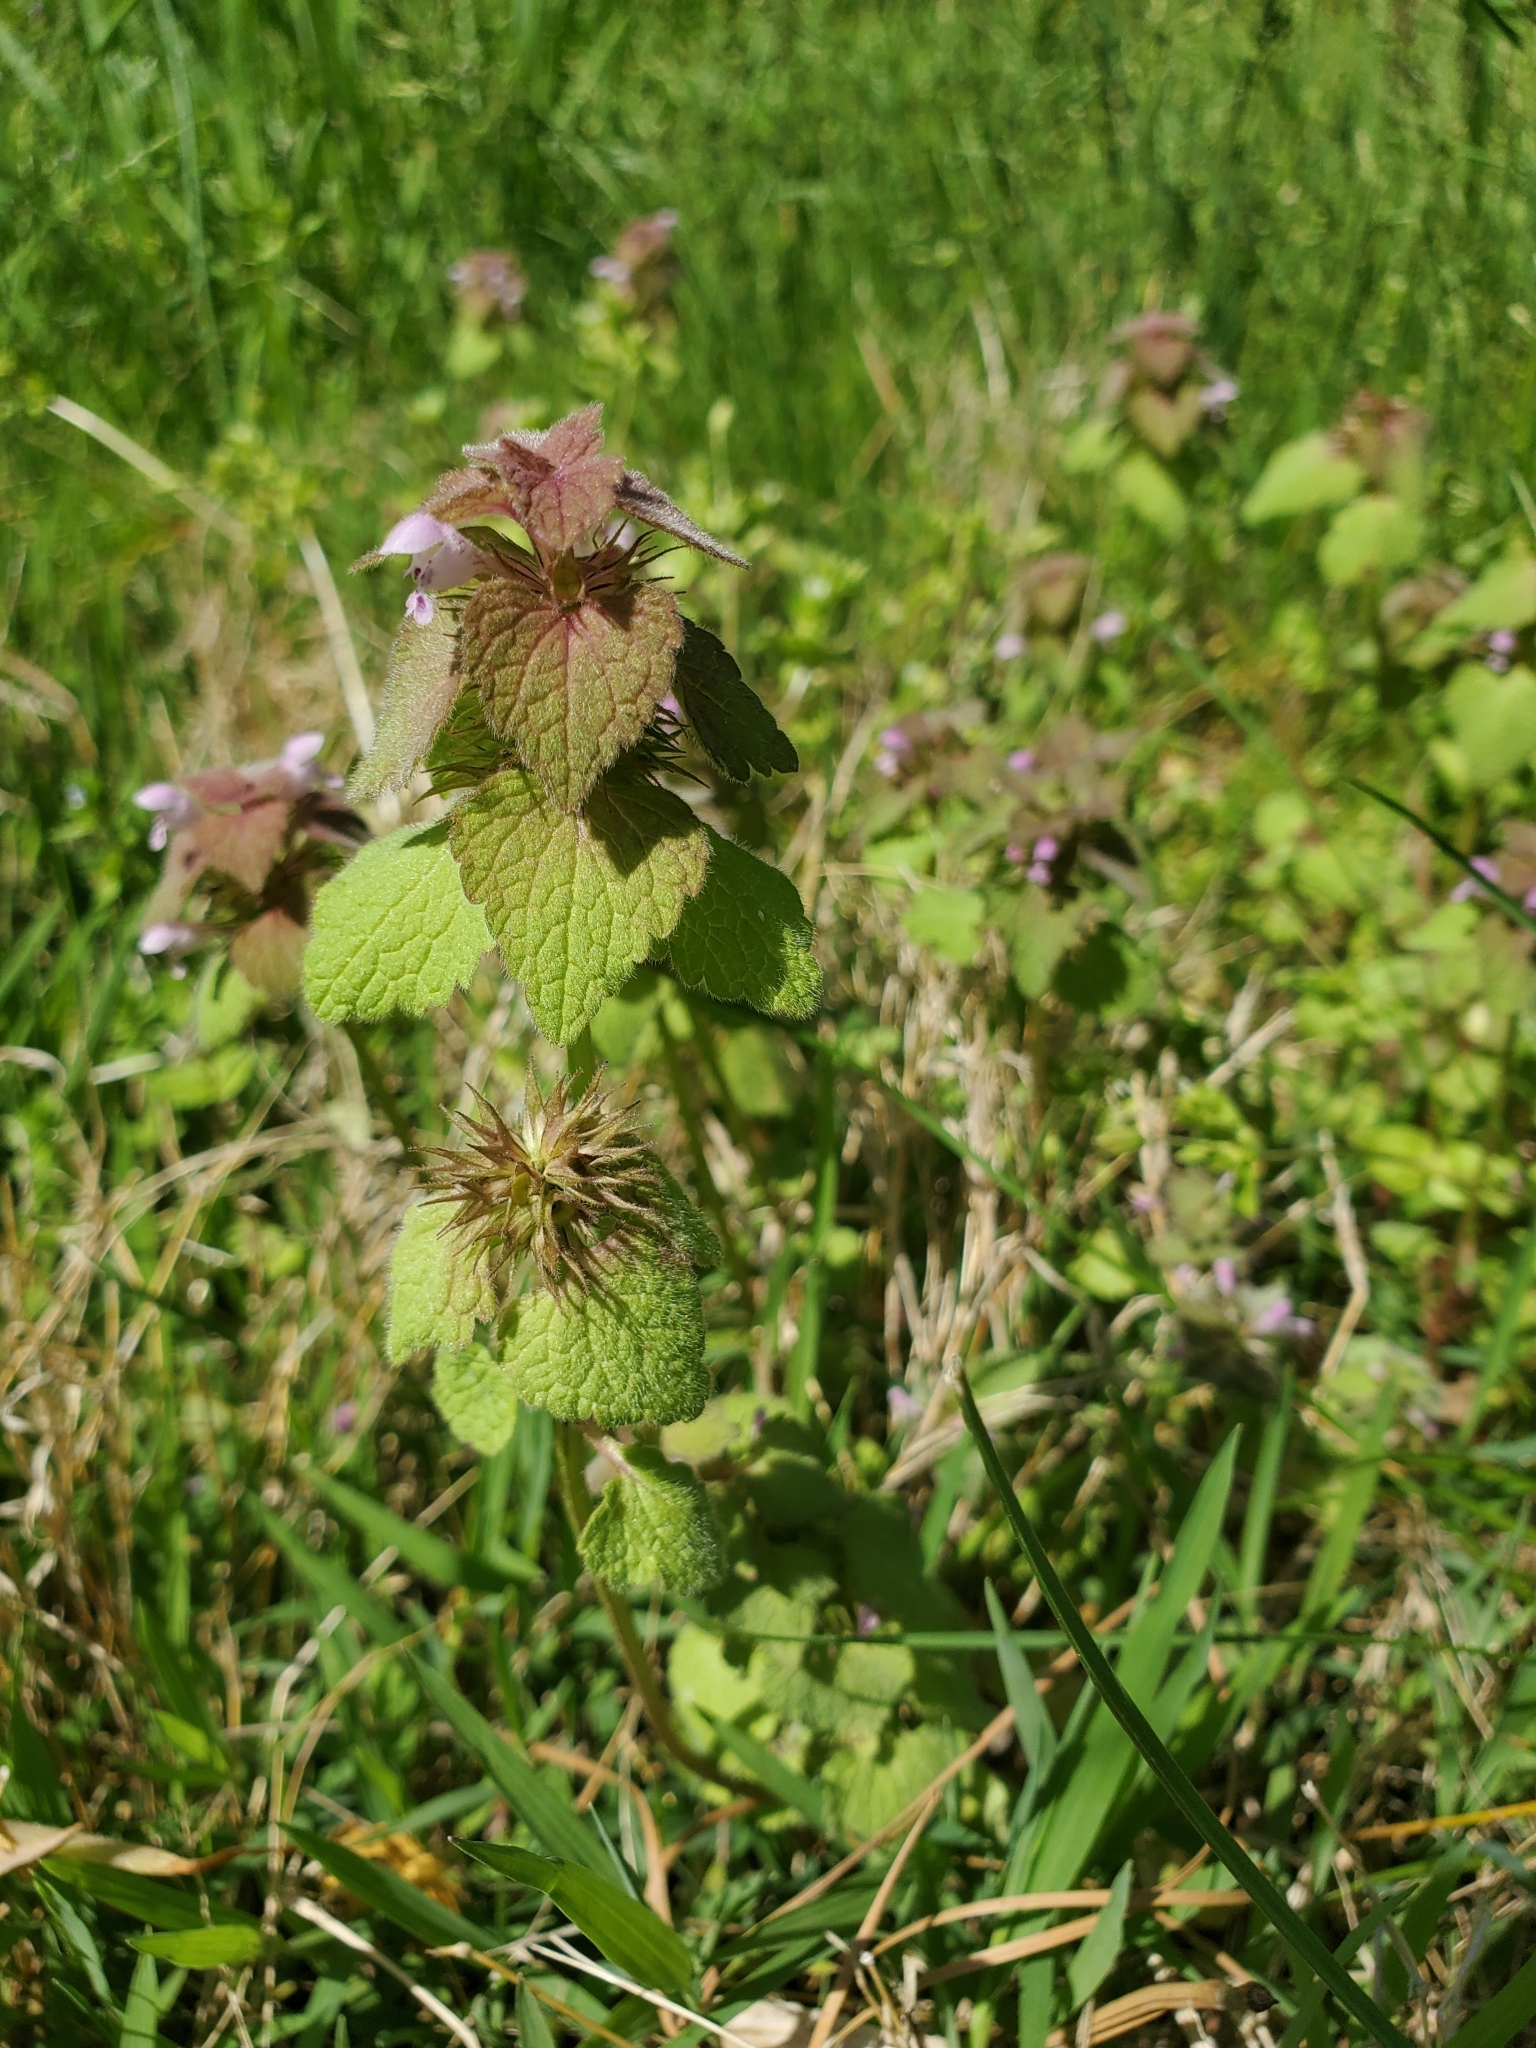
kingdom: Plantae
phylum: Tracheophyta
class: Magnoliopsida
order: Lamiales
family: Lamiaceae
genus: Lamium
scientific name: Lamium purpureum
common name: Red dead-nettle
